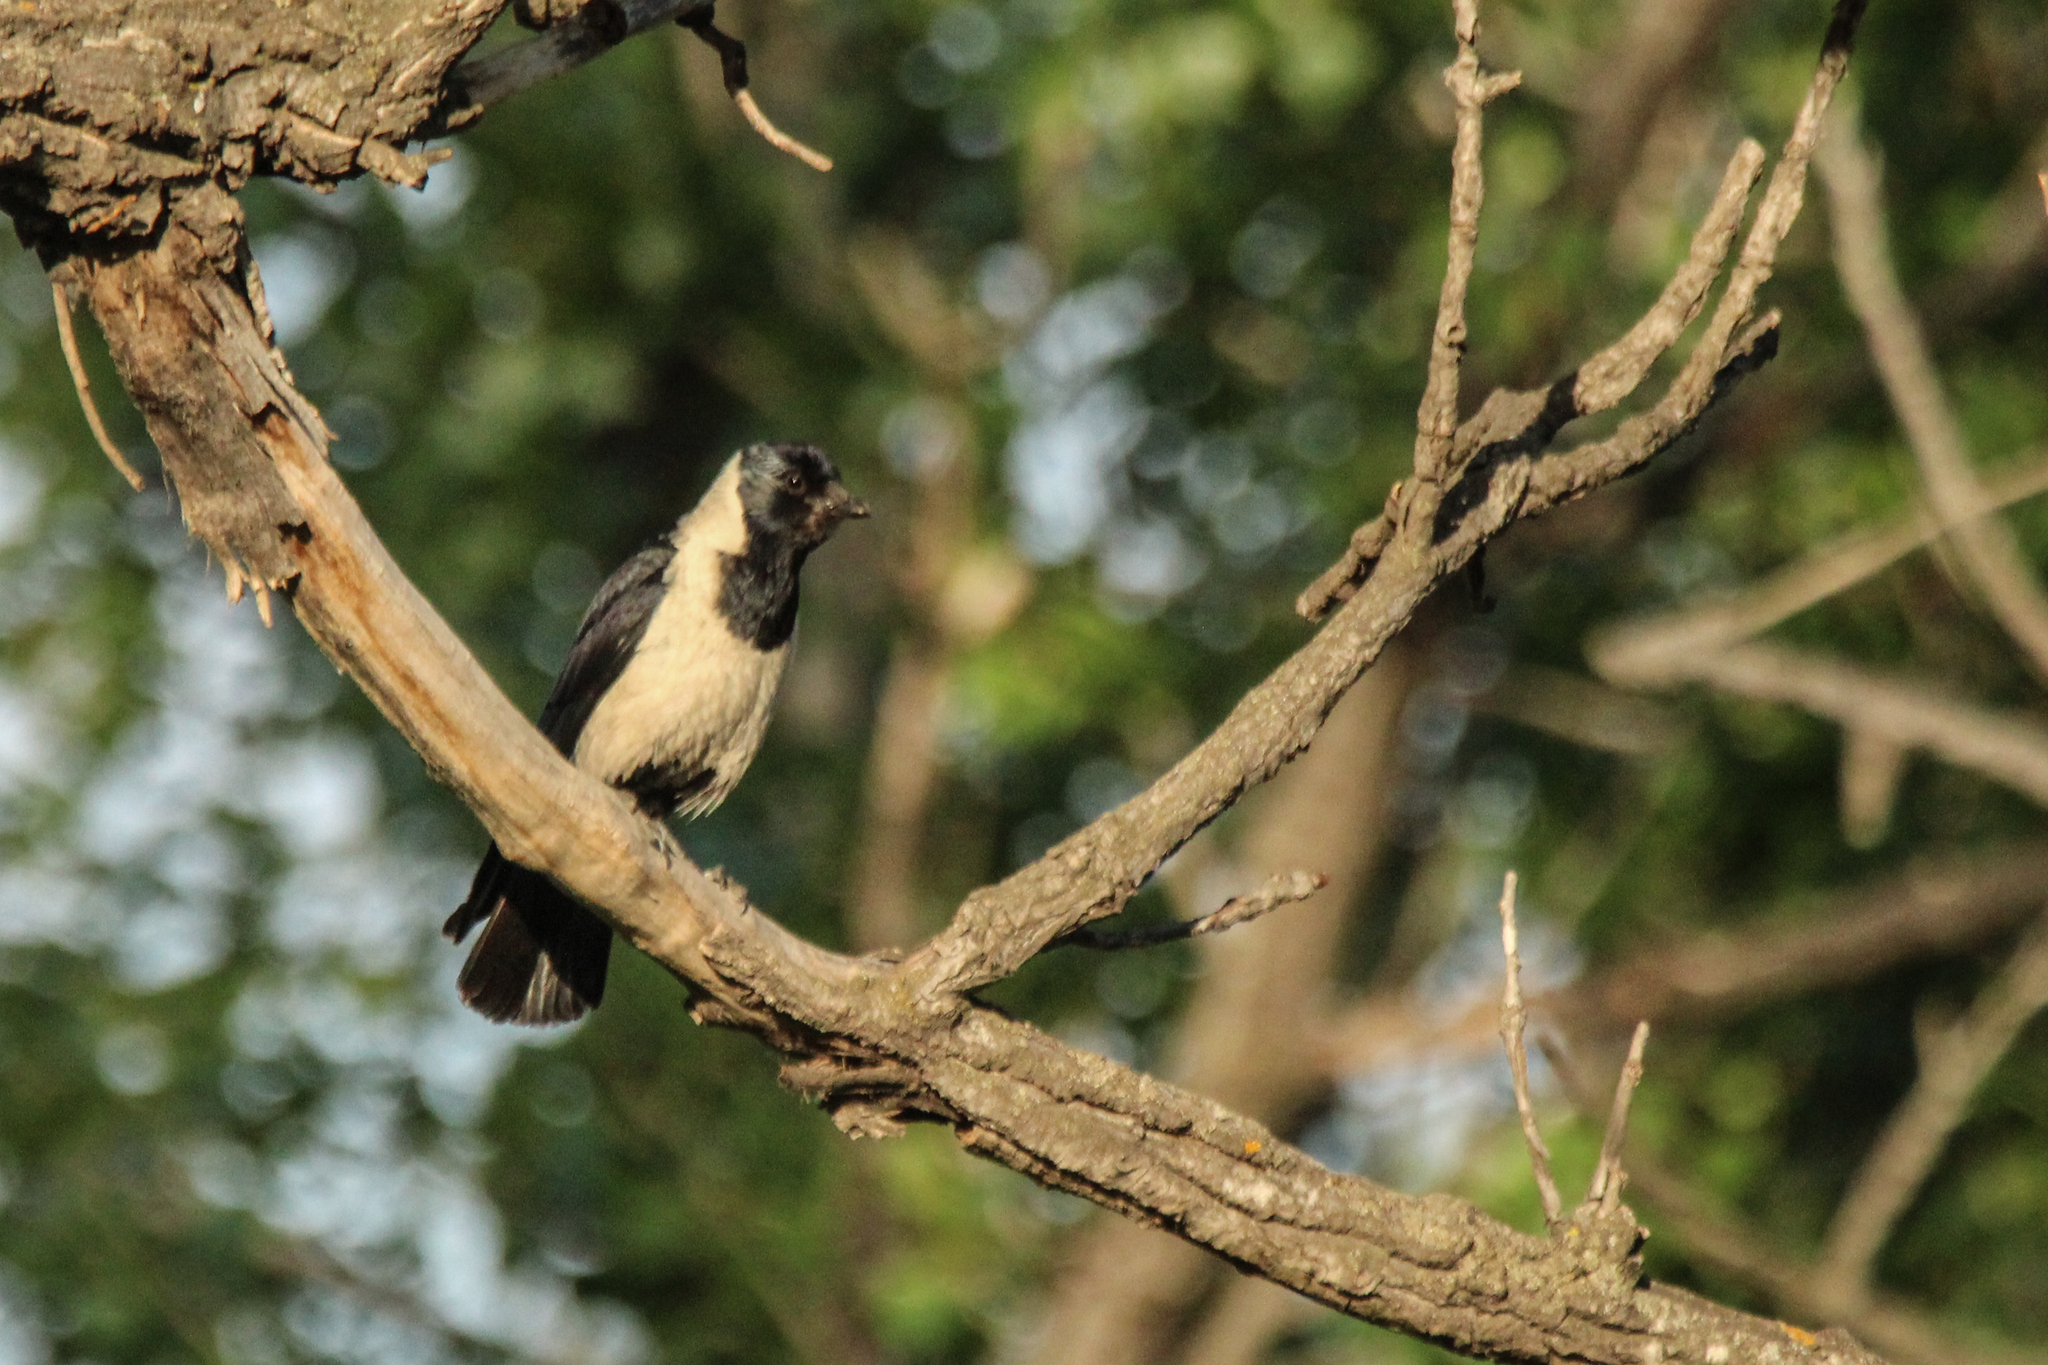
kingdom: Animalia
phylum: Chordata
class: Aves
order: Passeriformes
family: Corvidae
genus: Coloeus
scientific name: Coloeus dauuricus
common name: Daurian jackdaw
